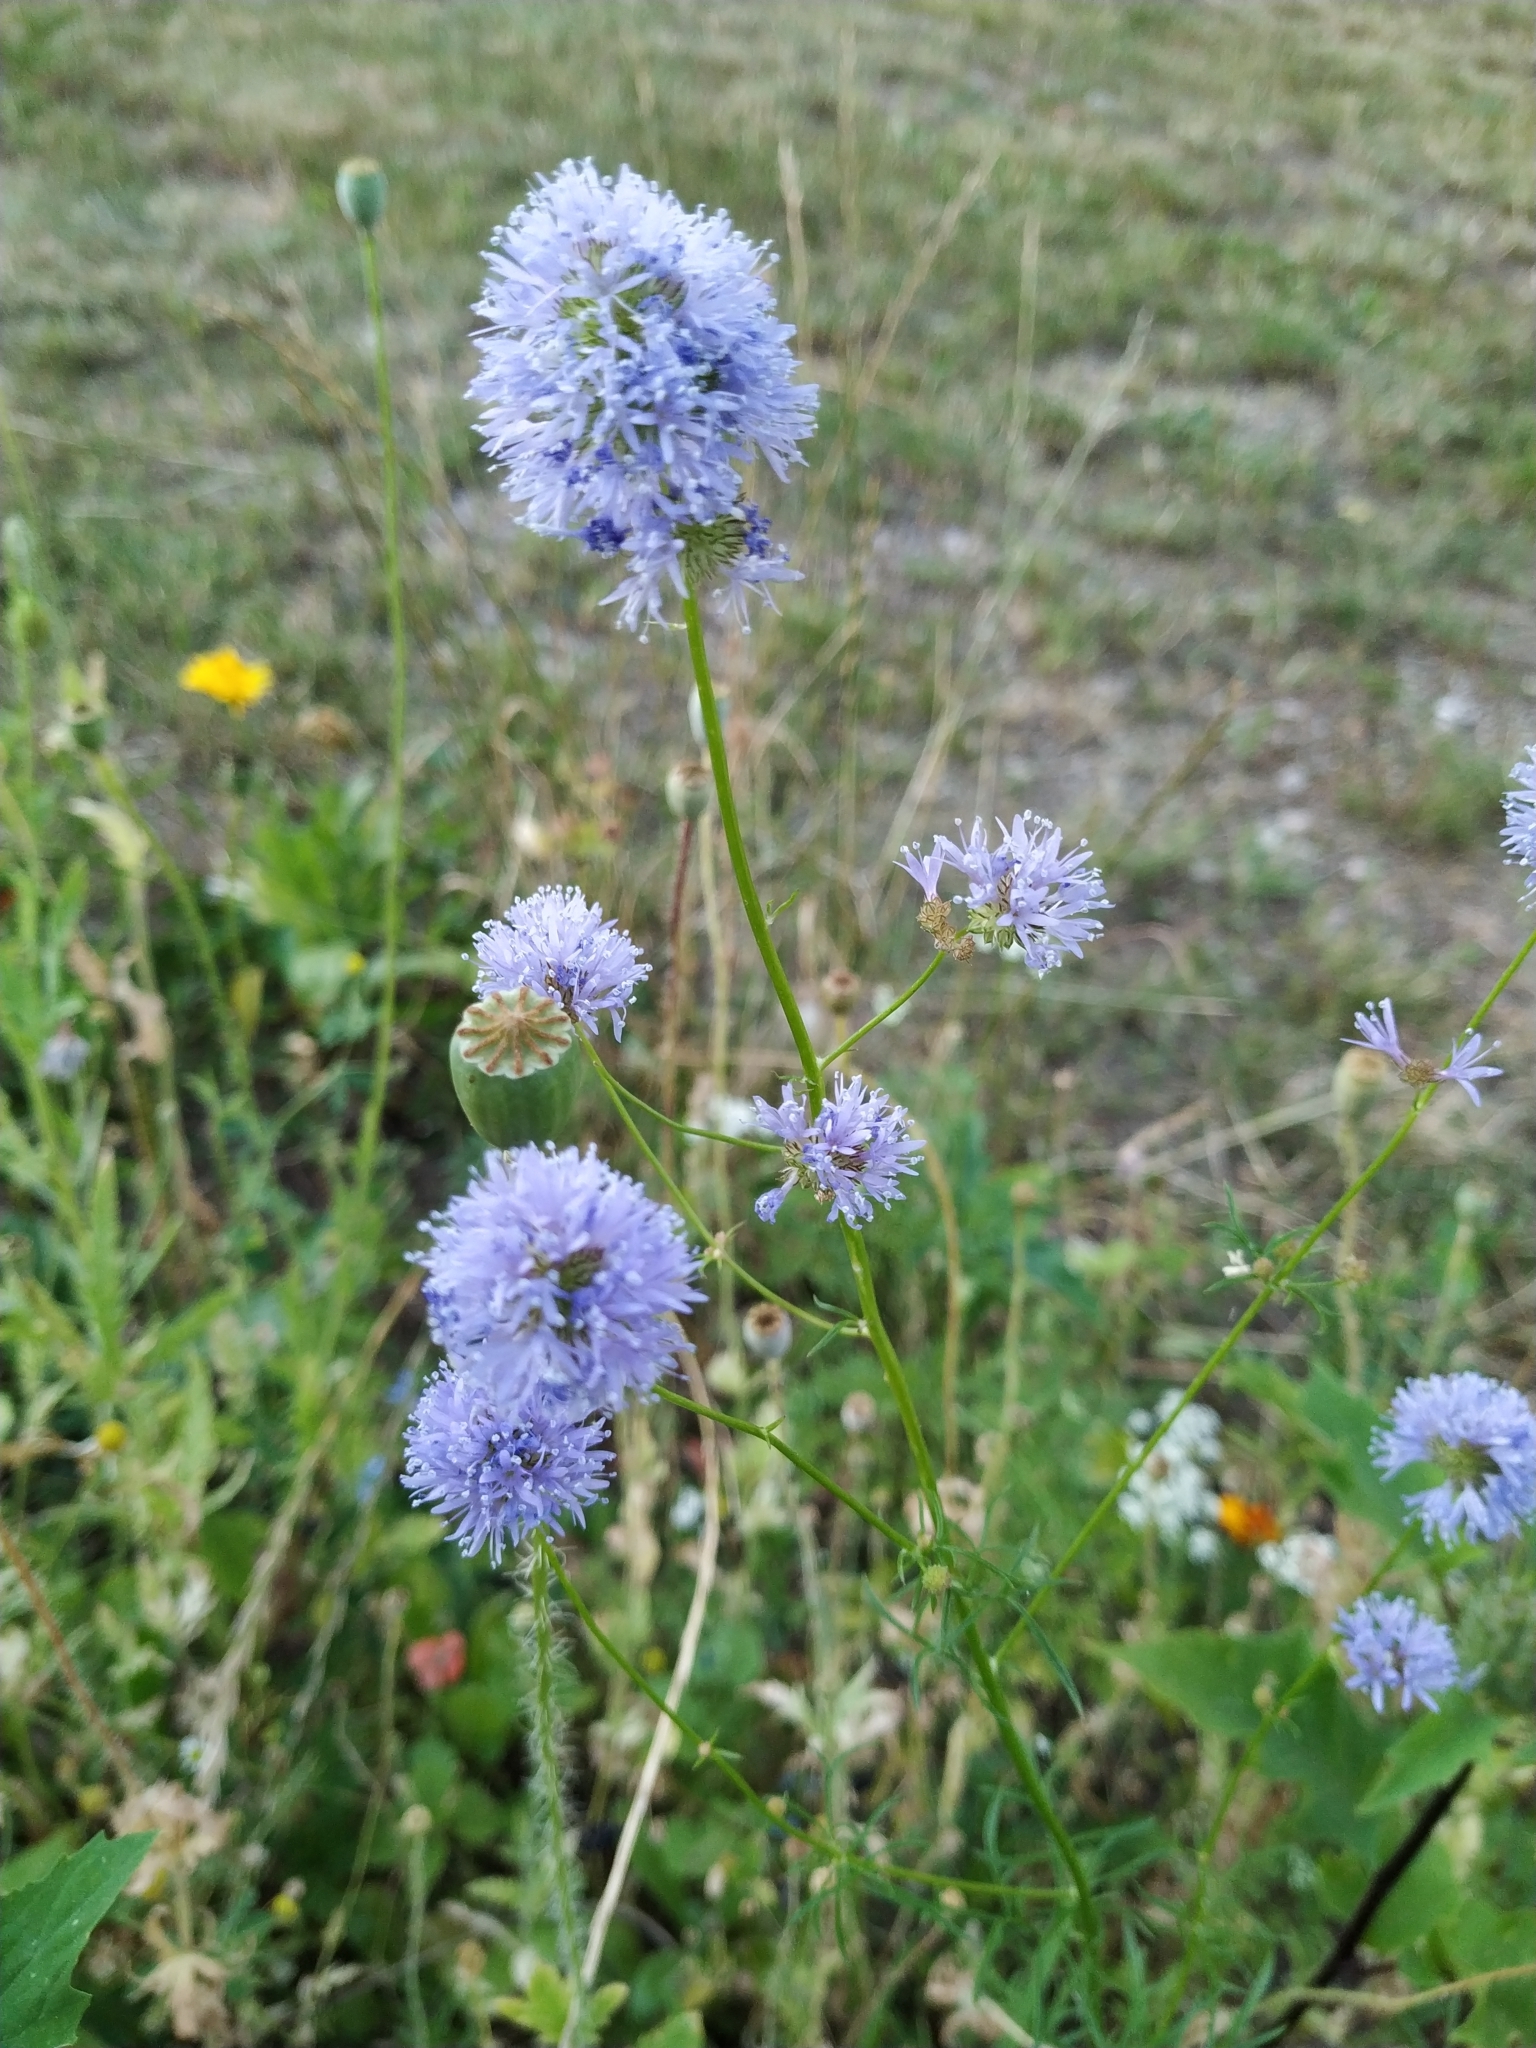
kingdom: Plantae
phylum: Tracheophyta
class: Magnoliopsida
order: Ericales
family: Polemoniaceae
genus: Gilia
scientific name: Gilia capitata
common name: Bluehead gilia
